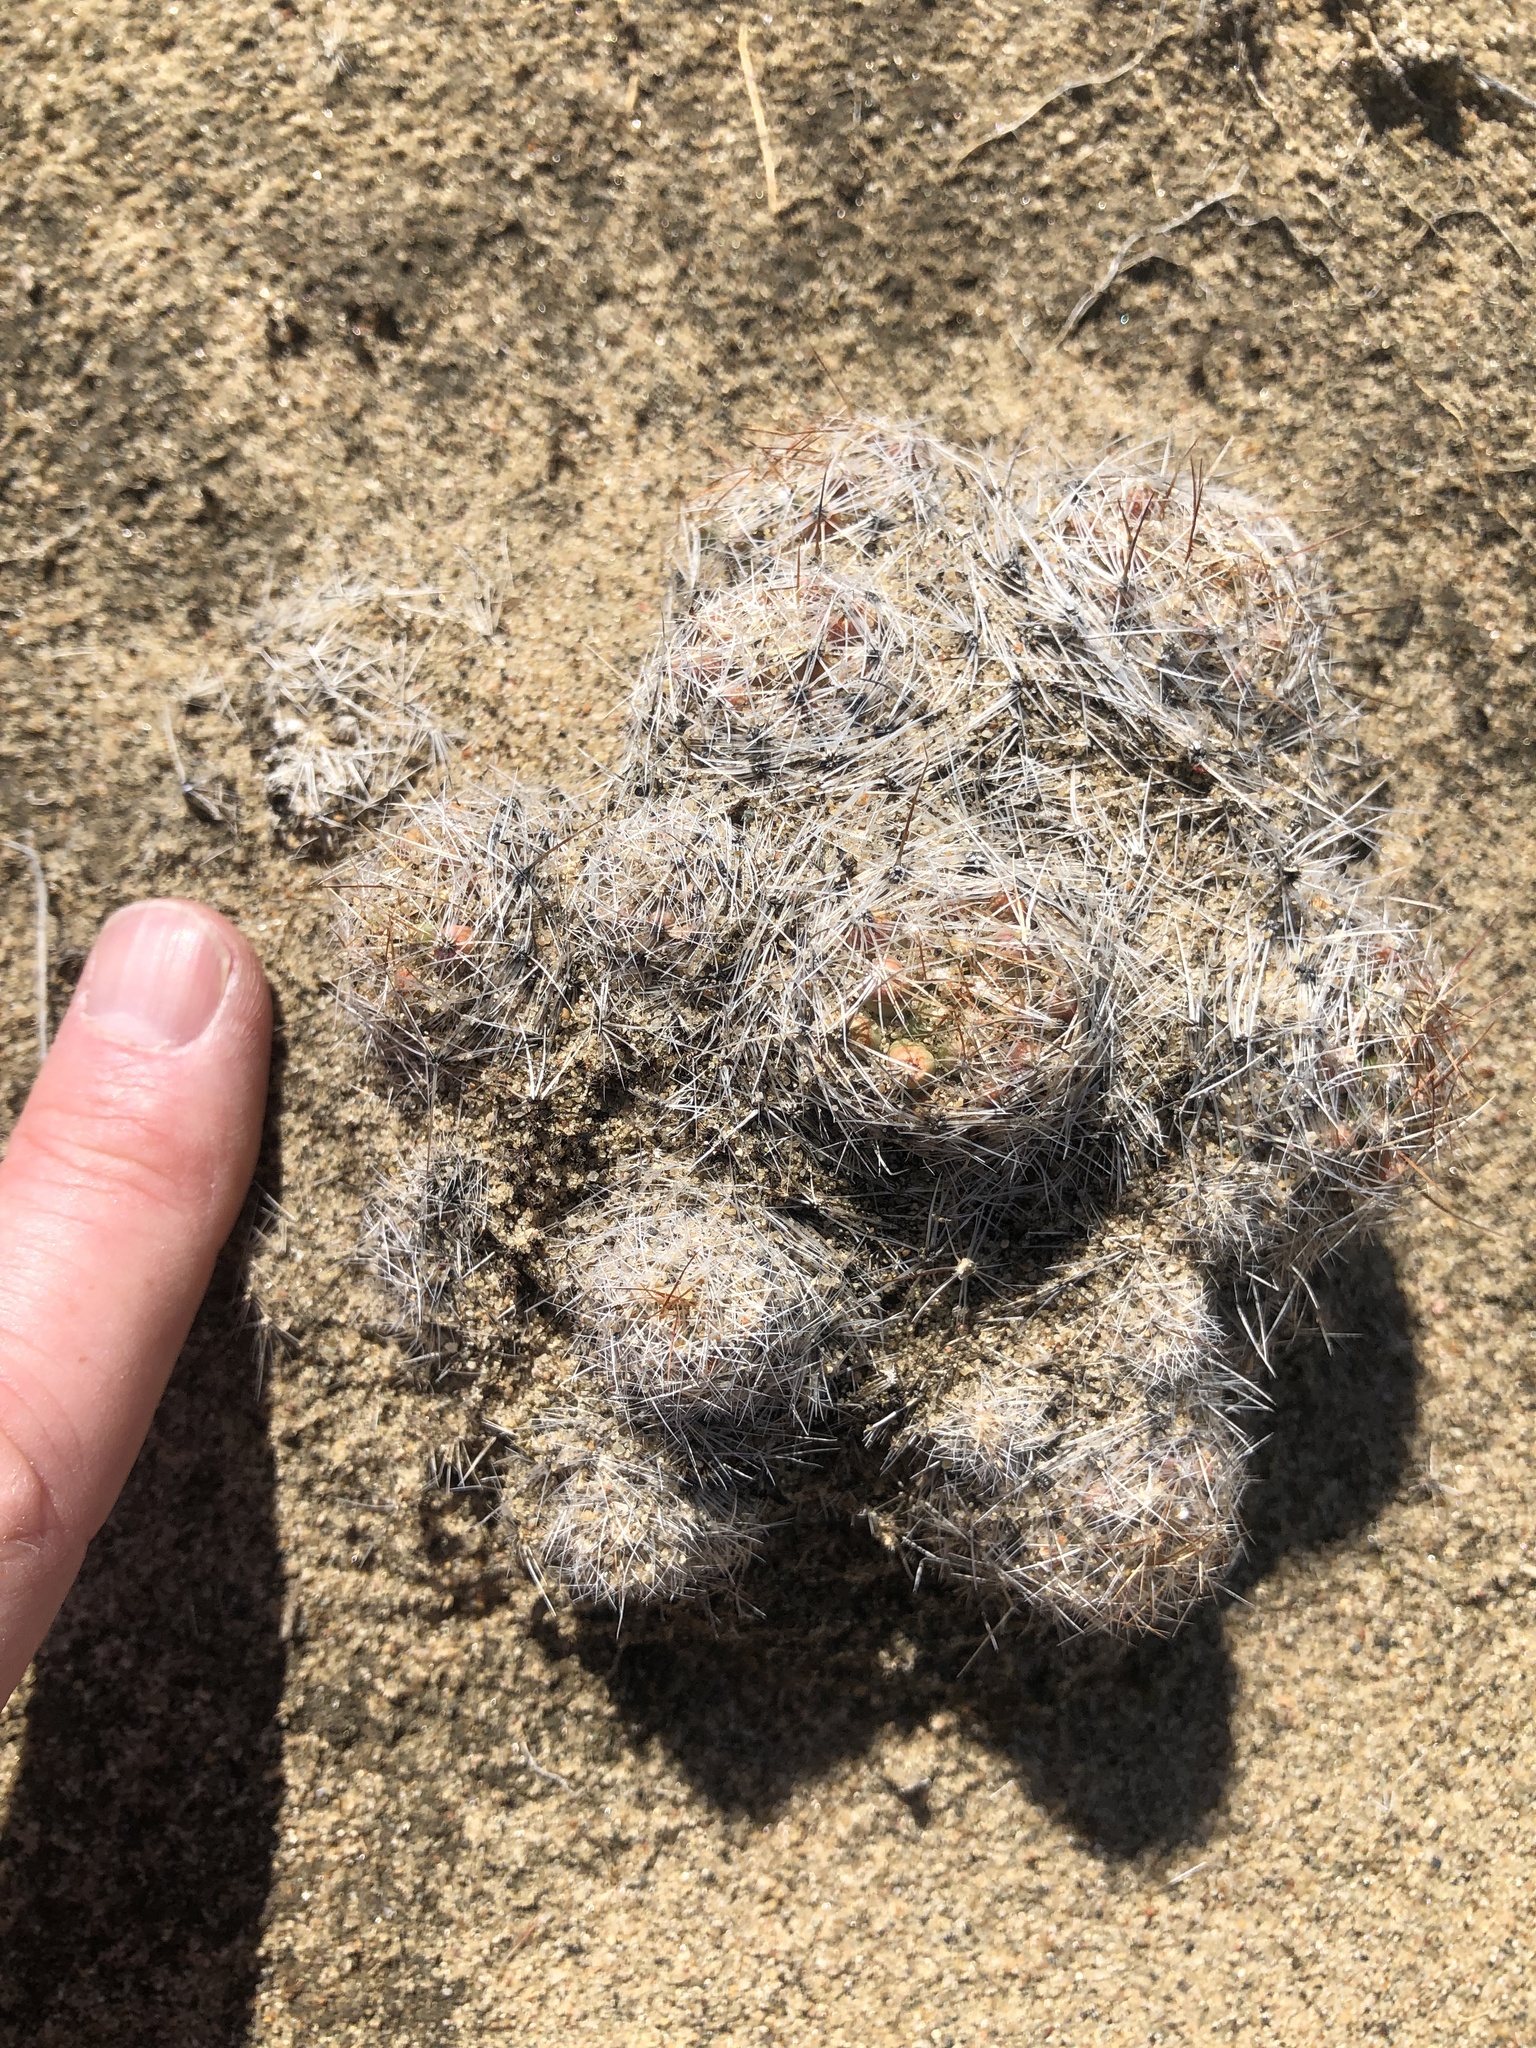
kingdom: Plantae
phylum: Tracheophyta
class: Magnoliopsida
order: Caryophyllales
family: Cactaceae
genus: Pelecyphora
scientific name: Pelecyphora vivipara
